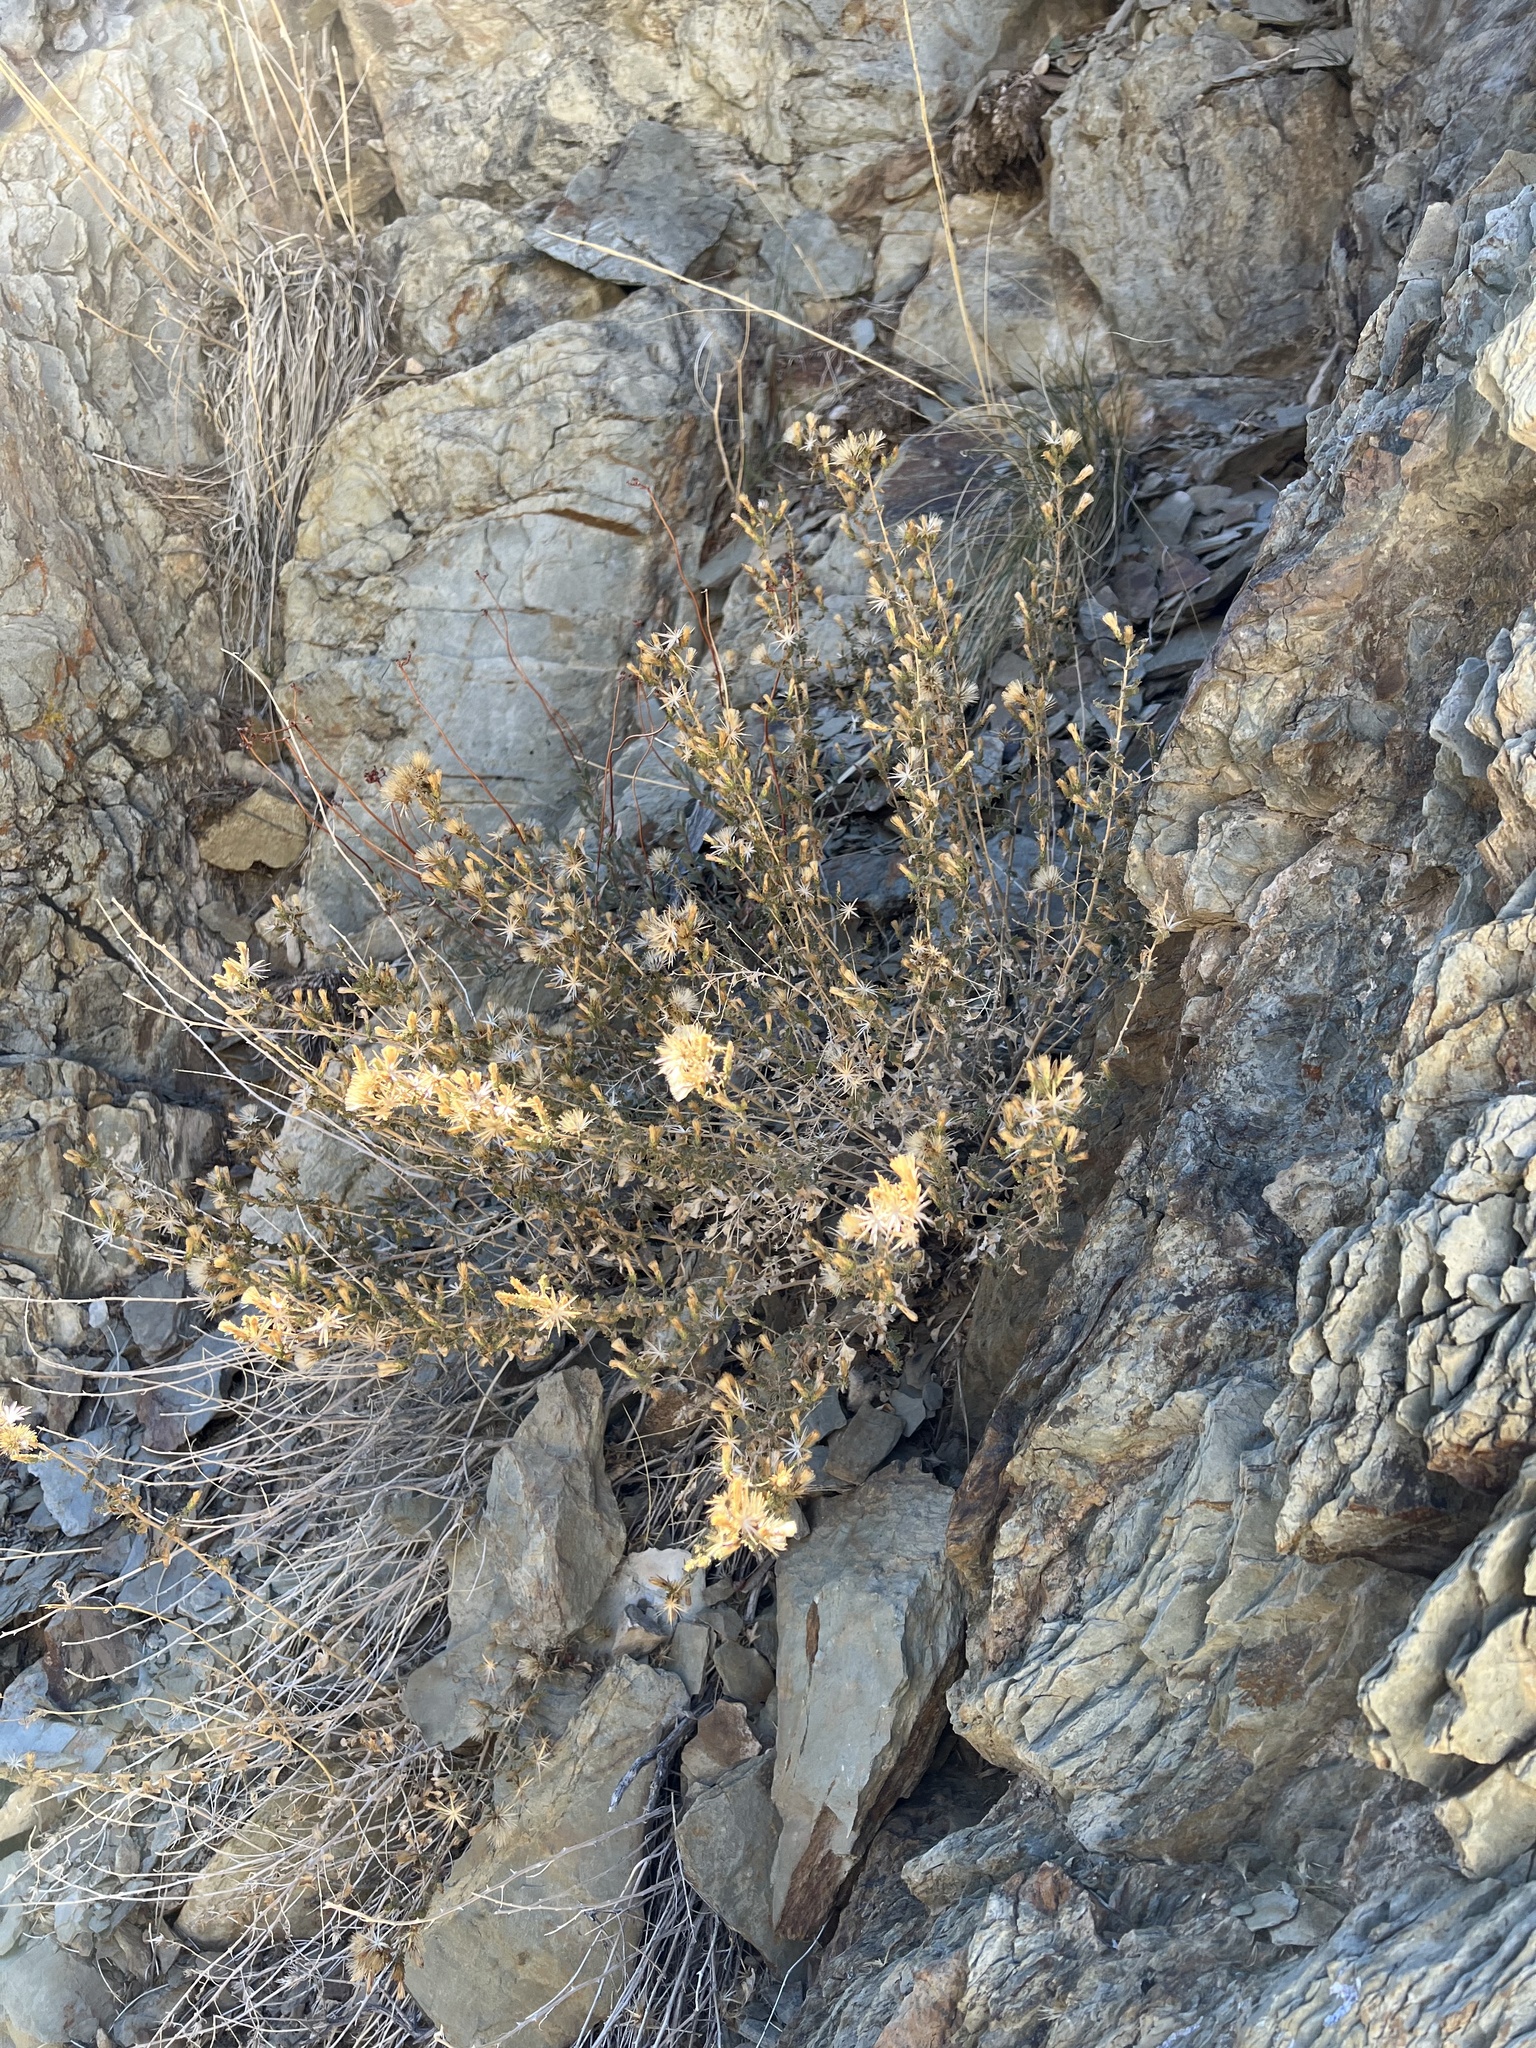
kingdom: Plantae
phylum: Tracheophyta
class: Magnoliopsida
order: Asterales
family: Asteraceae
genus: Brickellia
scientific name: Brickellia microphylla
